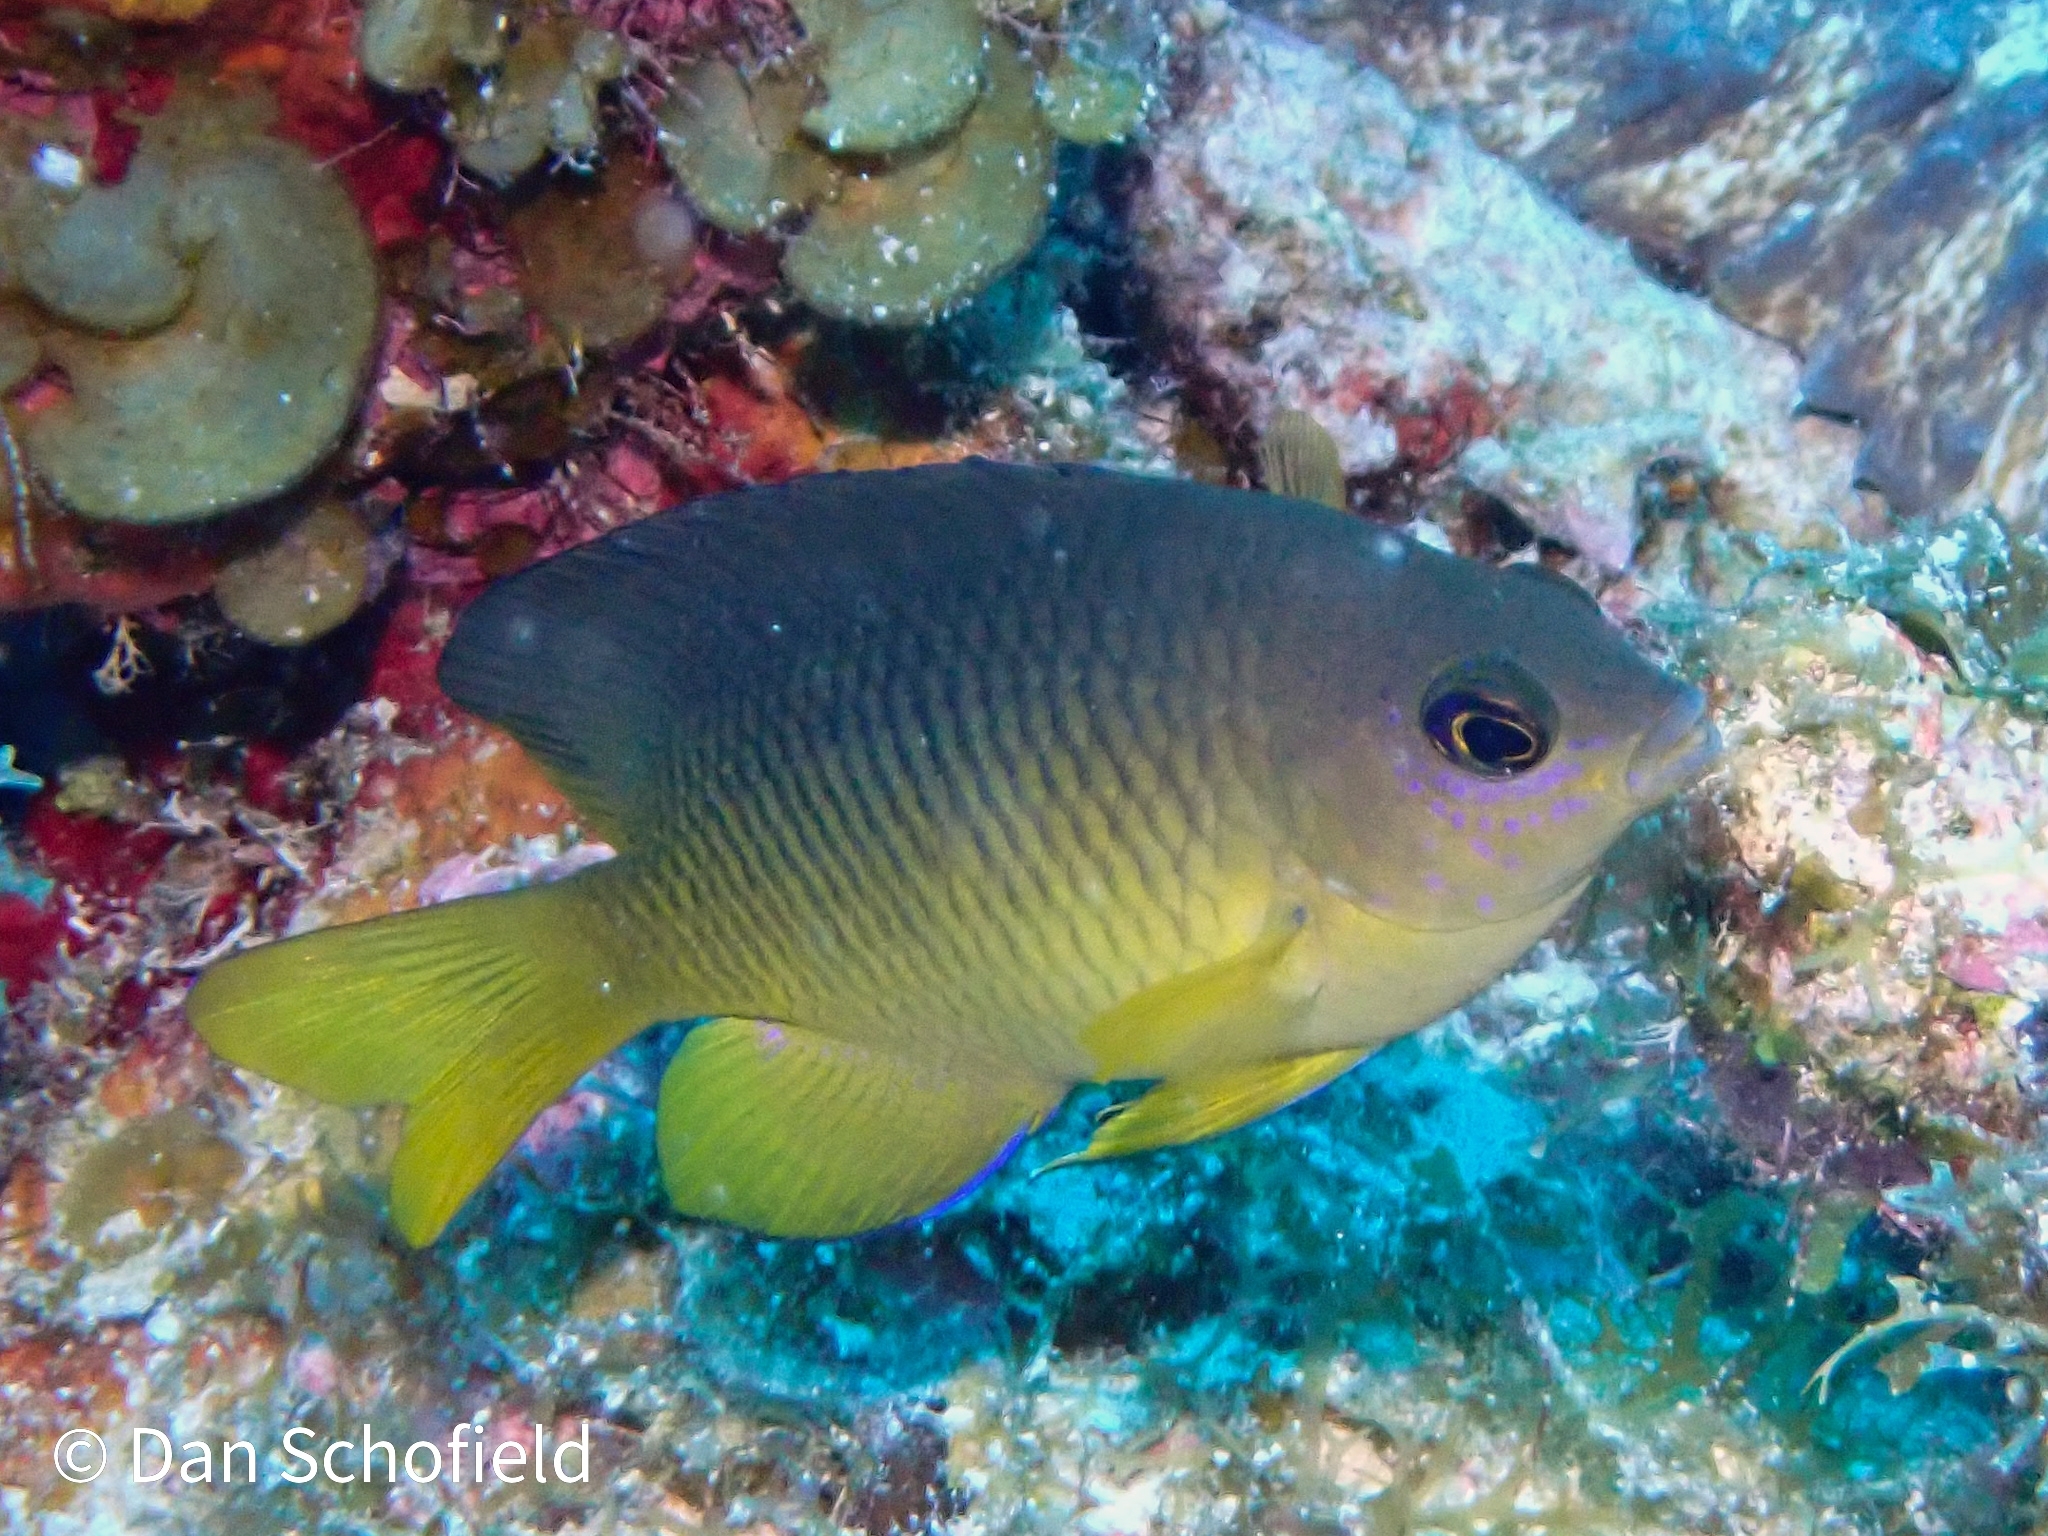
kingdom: Animalia
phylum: Chordata
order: Perciformes
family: Pomacentridae
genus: Stegastes
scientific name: Stegastes xanthurus
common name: Cocoa damselfish
